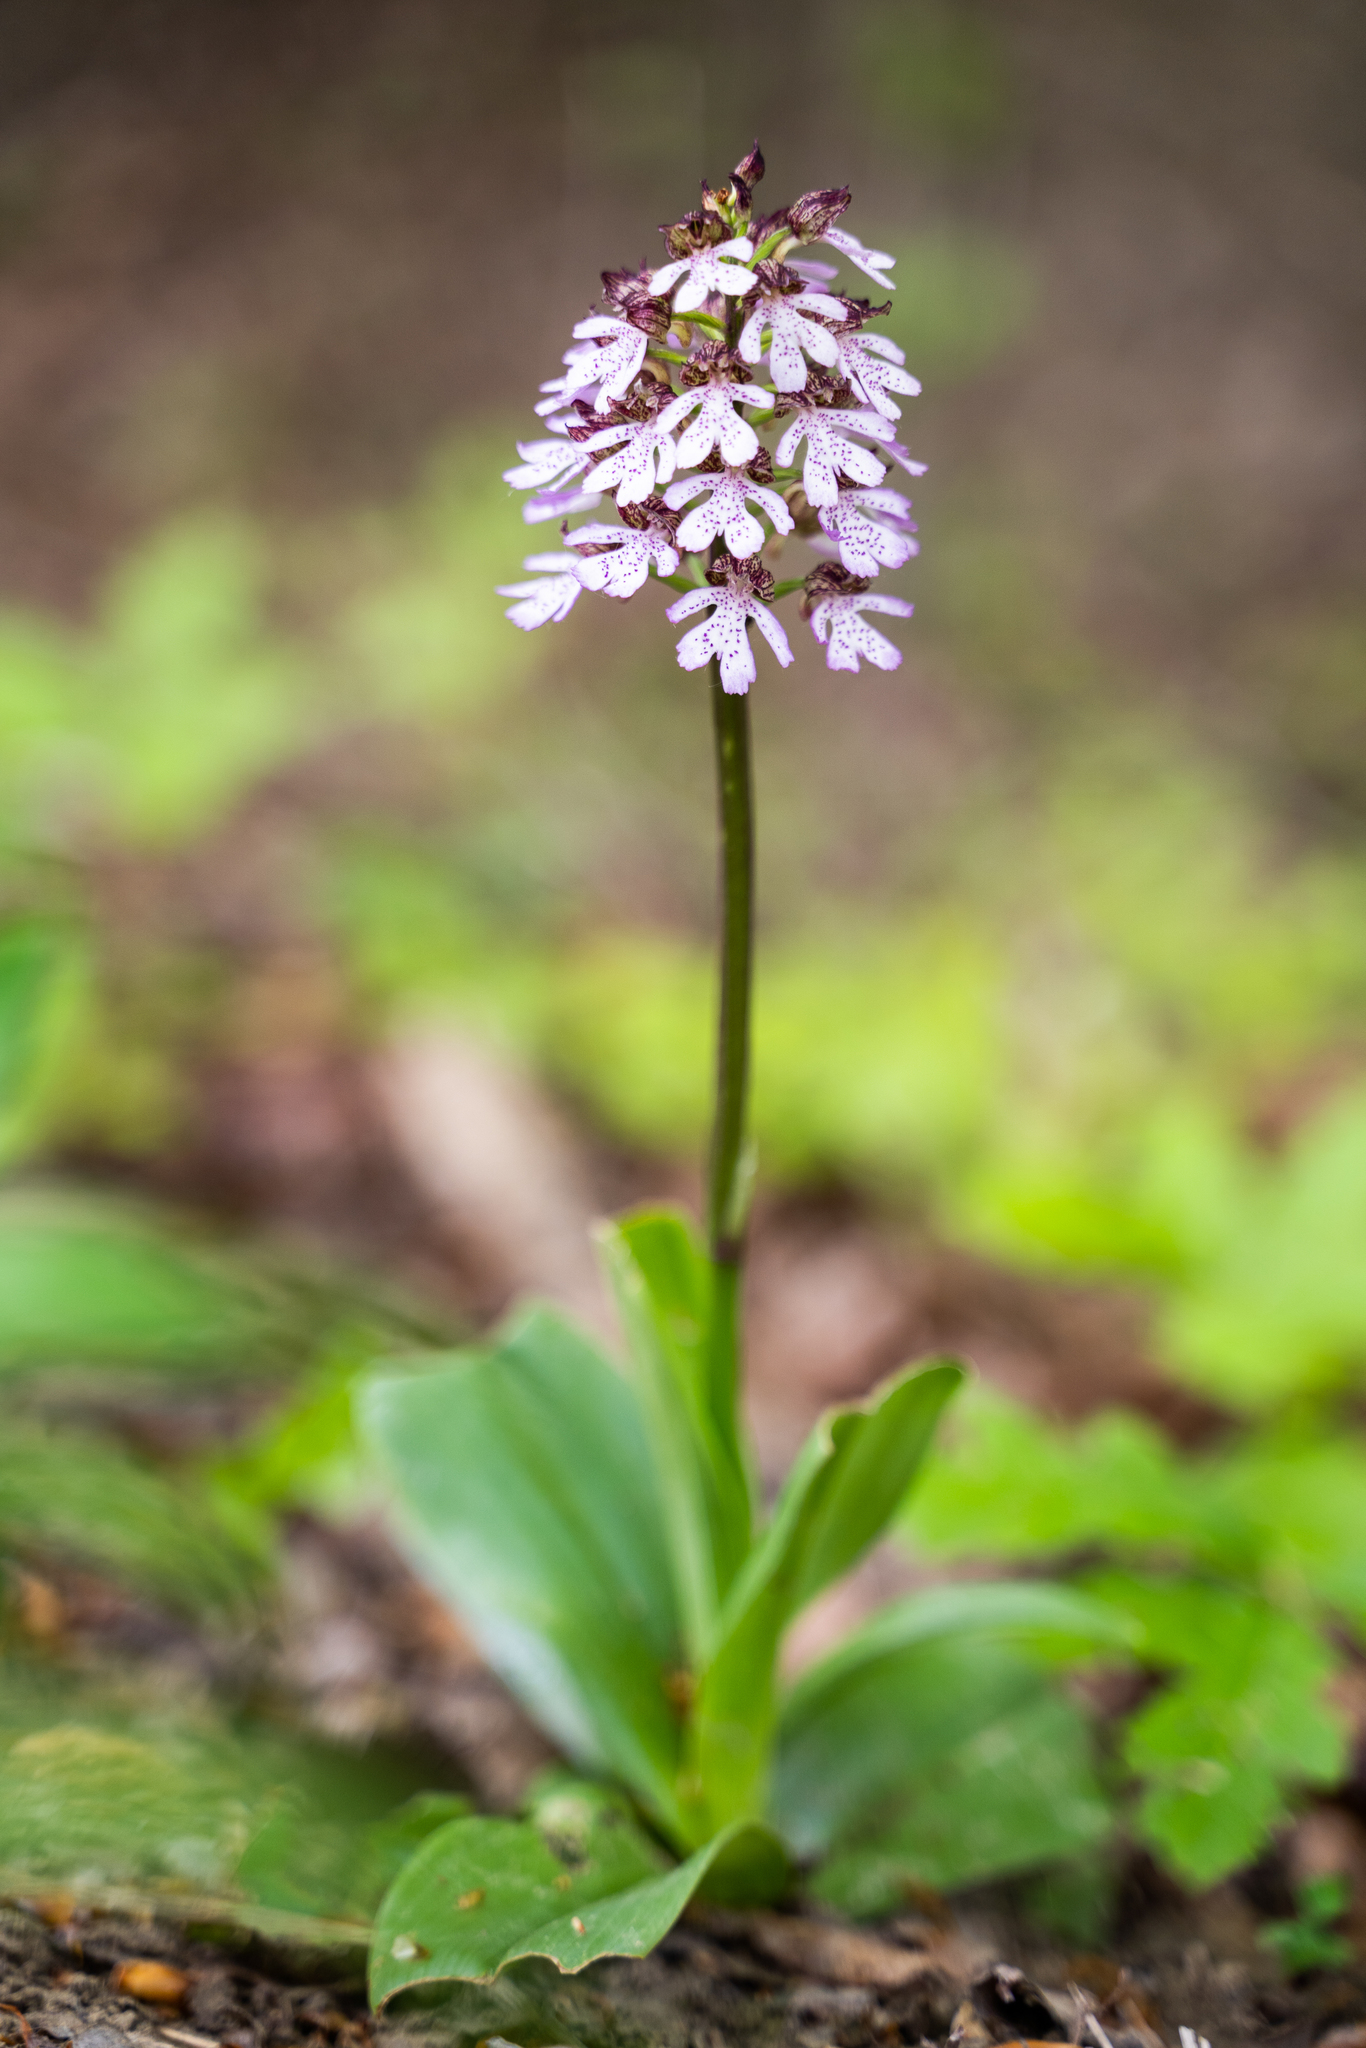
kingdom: Plantae
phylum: Tracheophyta
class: Liliopsida
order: Asparagales
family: Orchidaceae
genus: Orchis
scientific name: Orchis purpurea
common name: Lady orchid
